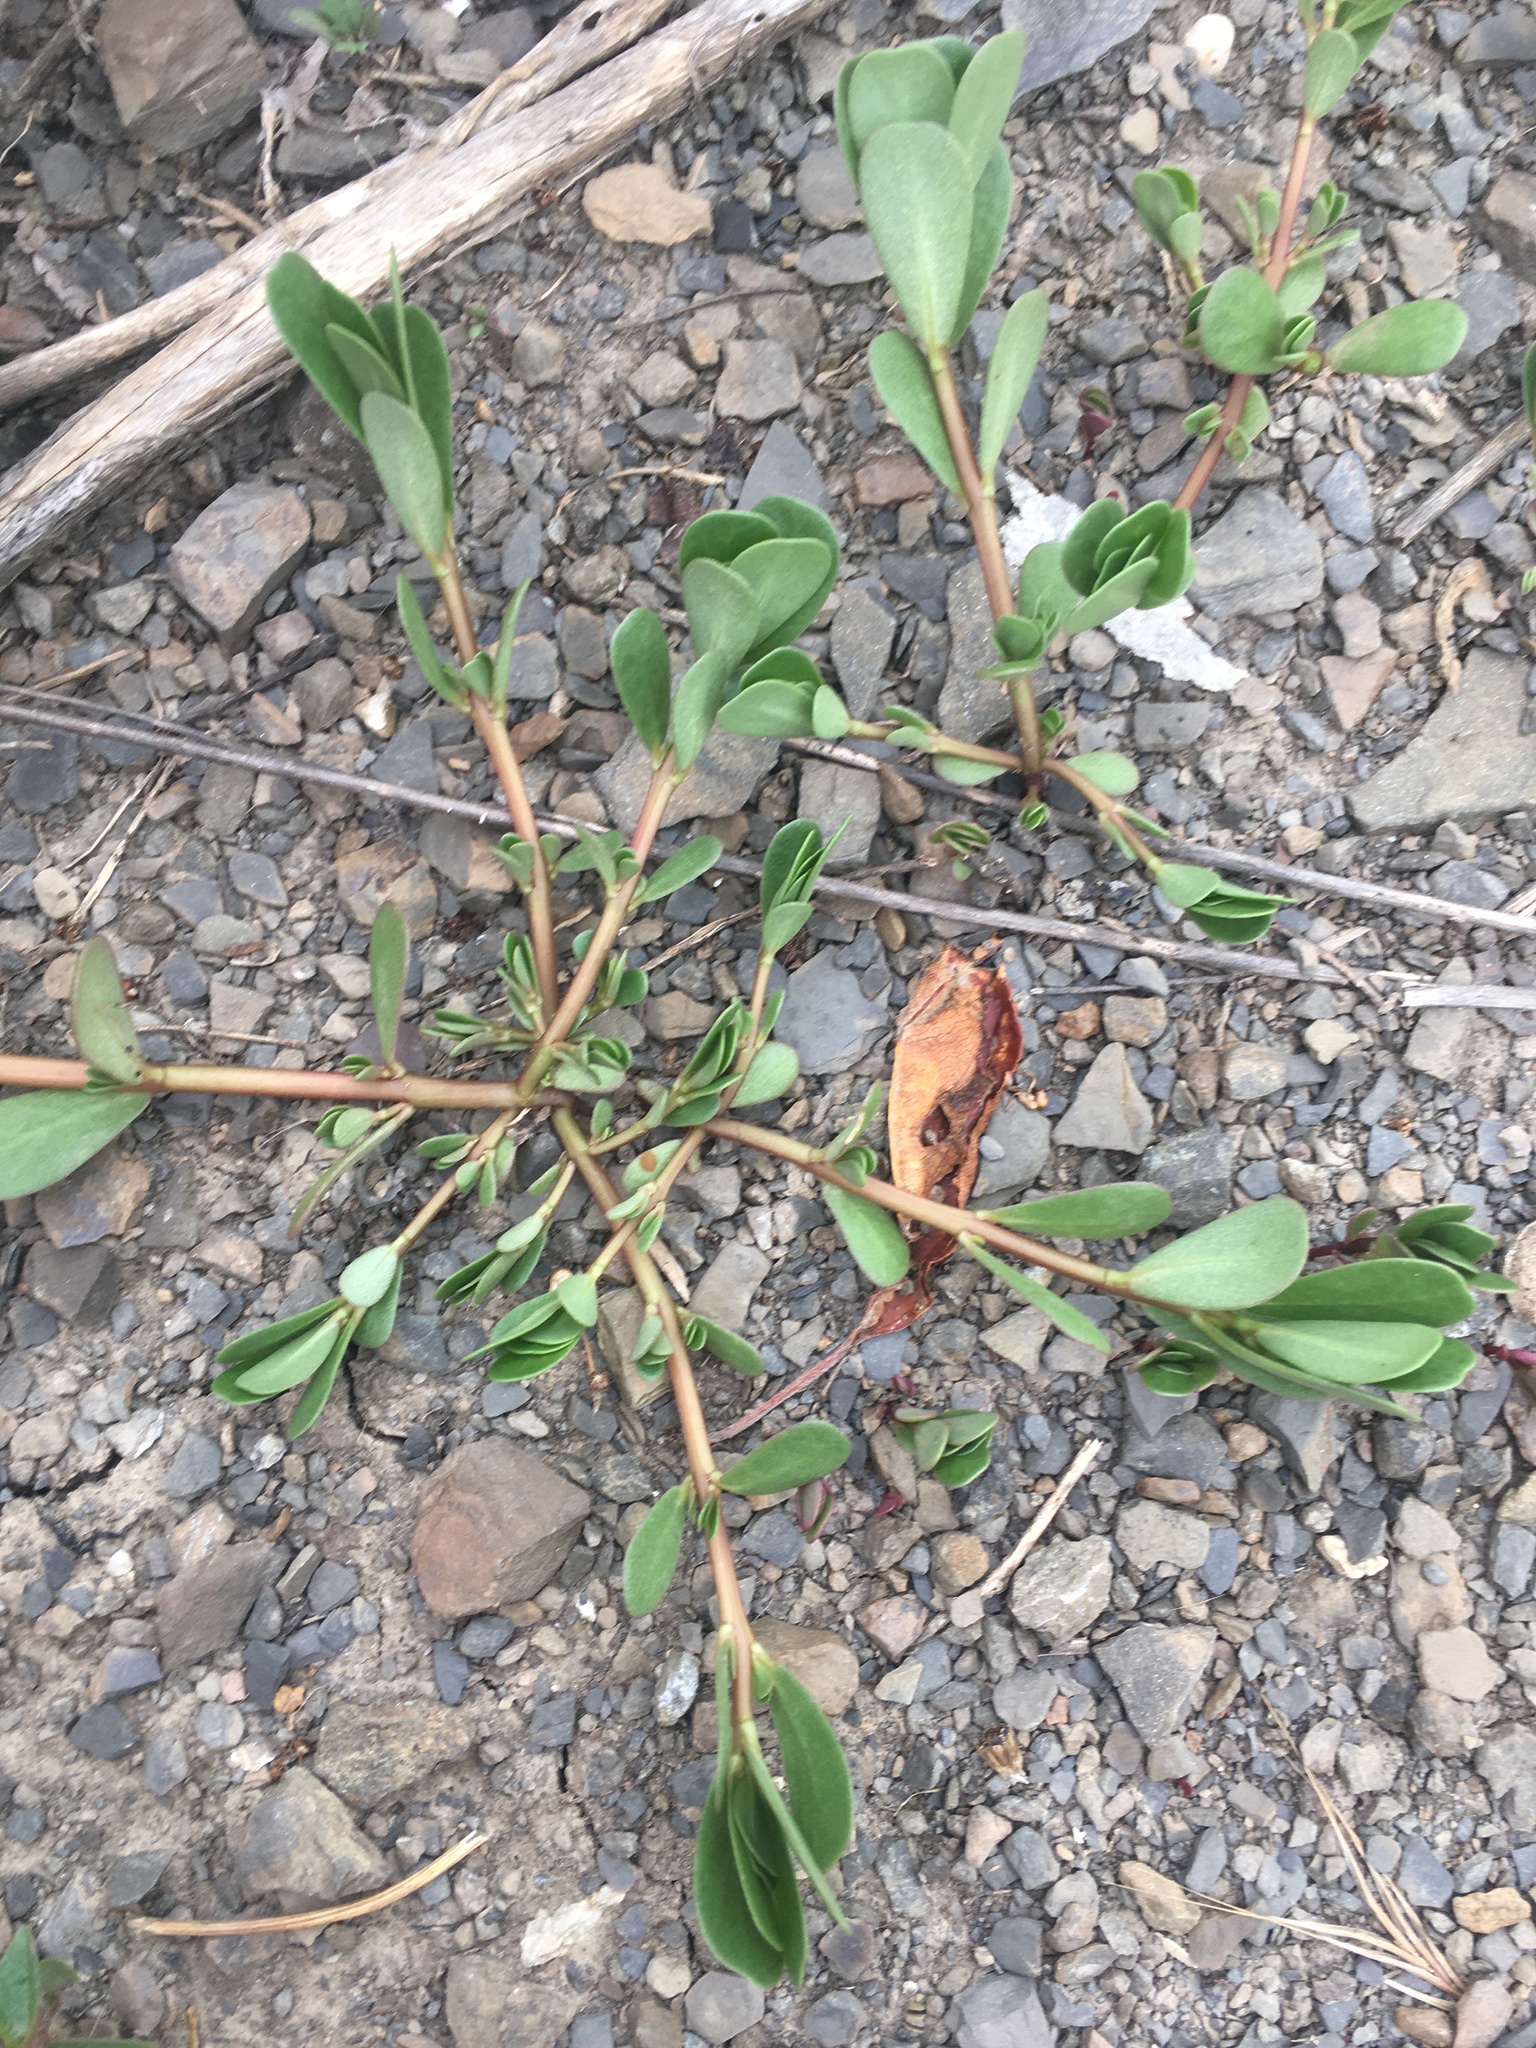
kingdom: Plantae
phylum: Tracheophyta
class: Magnoliopsida
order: Caryophyllales
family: Portulacaceae
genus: Portulaca
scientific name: Portulaca oleracea
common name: Common purslane
